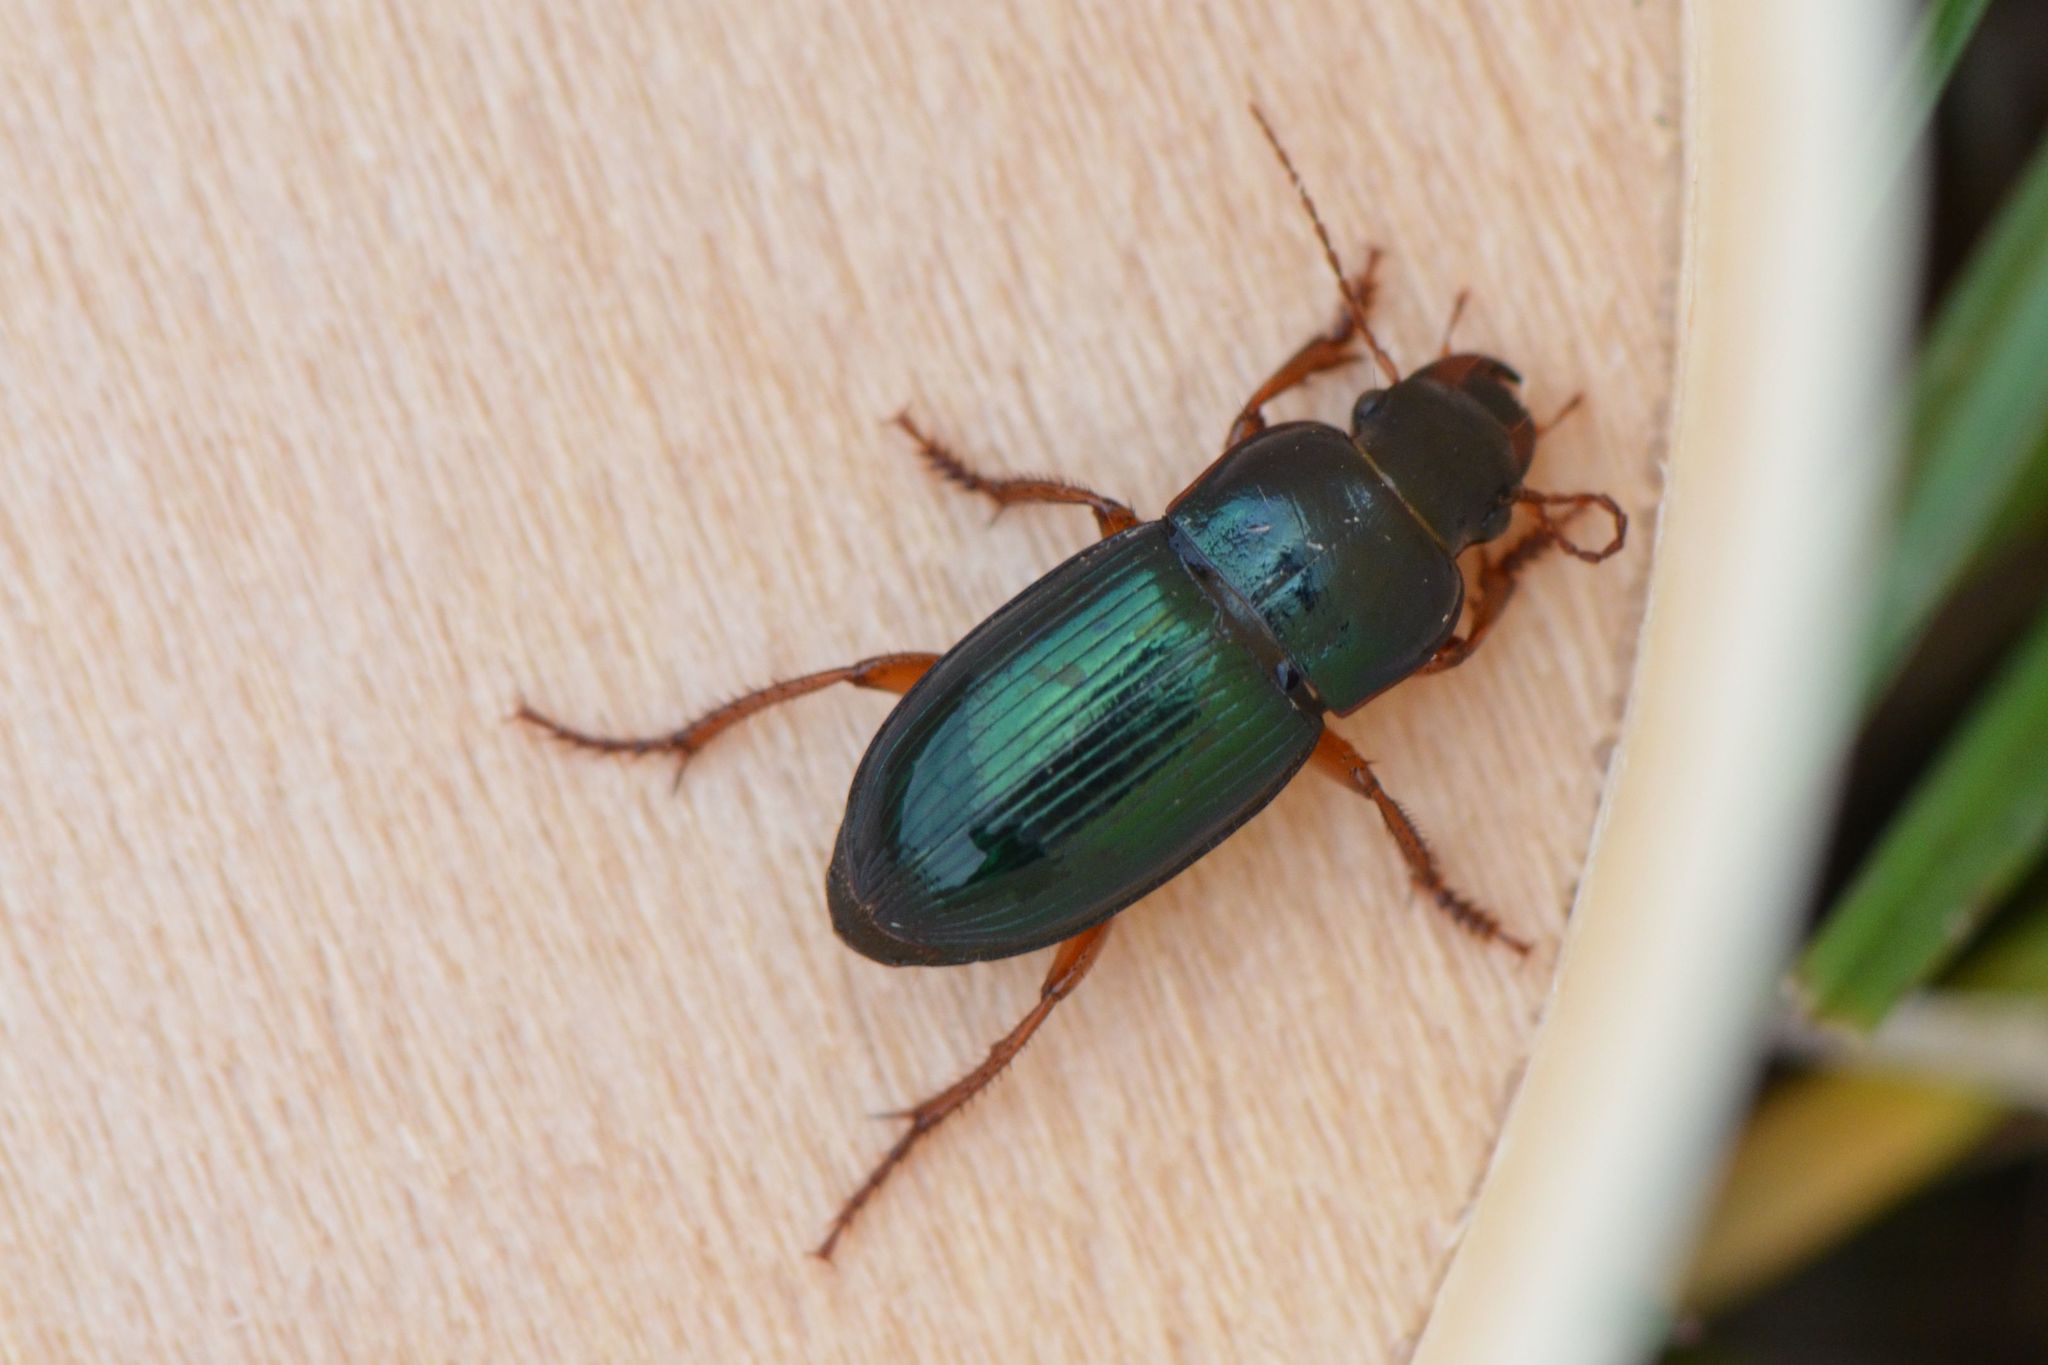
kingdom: Animalia
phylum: Arthropoda
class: Insecta
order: Coleoptera
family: Carabidae
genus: Harpalus
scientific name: Harpalus rubripes
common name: Red-legged harp ground beetle
